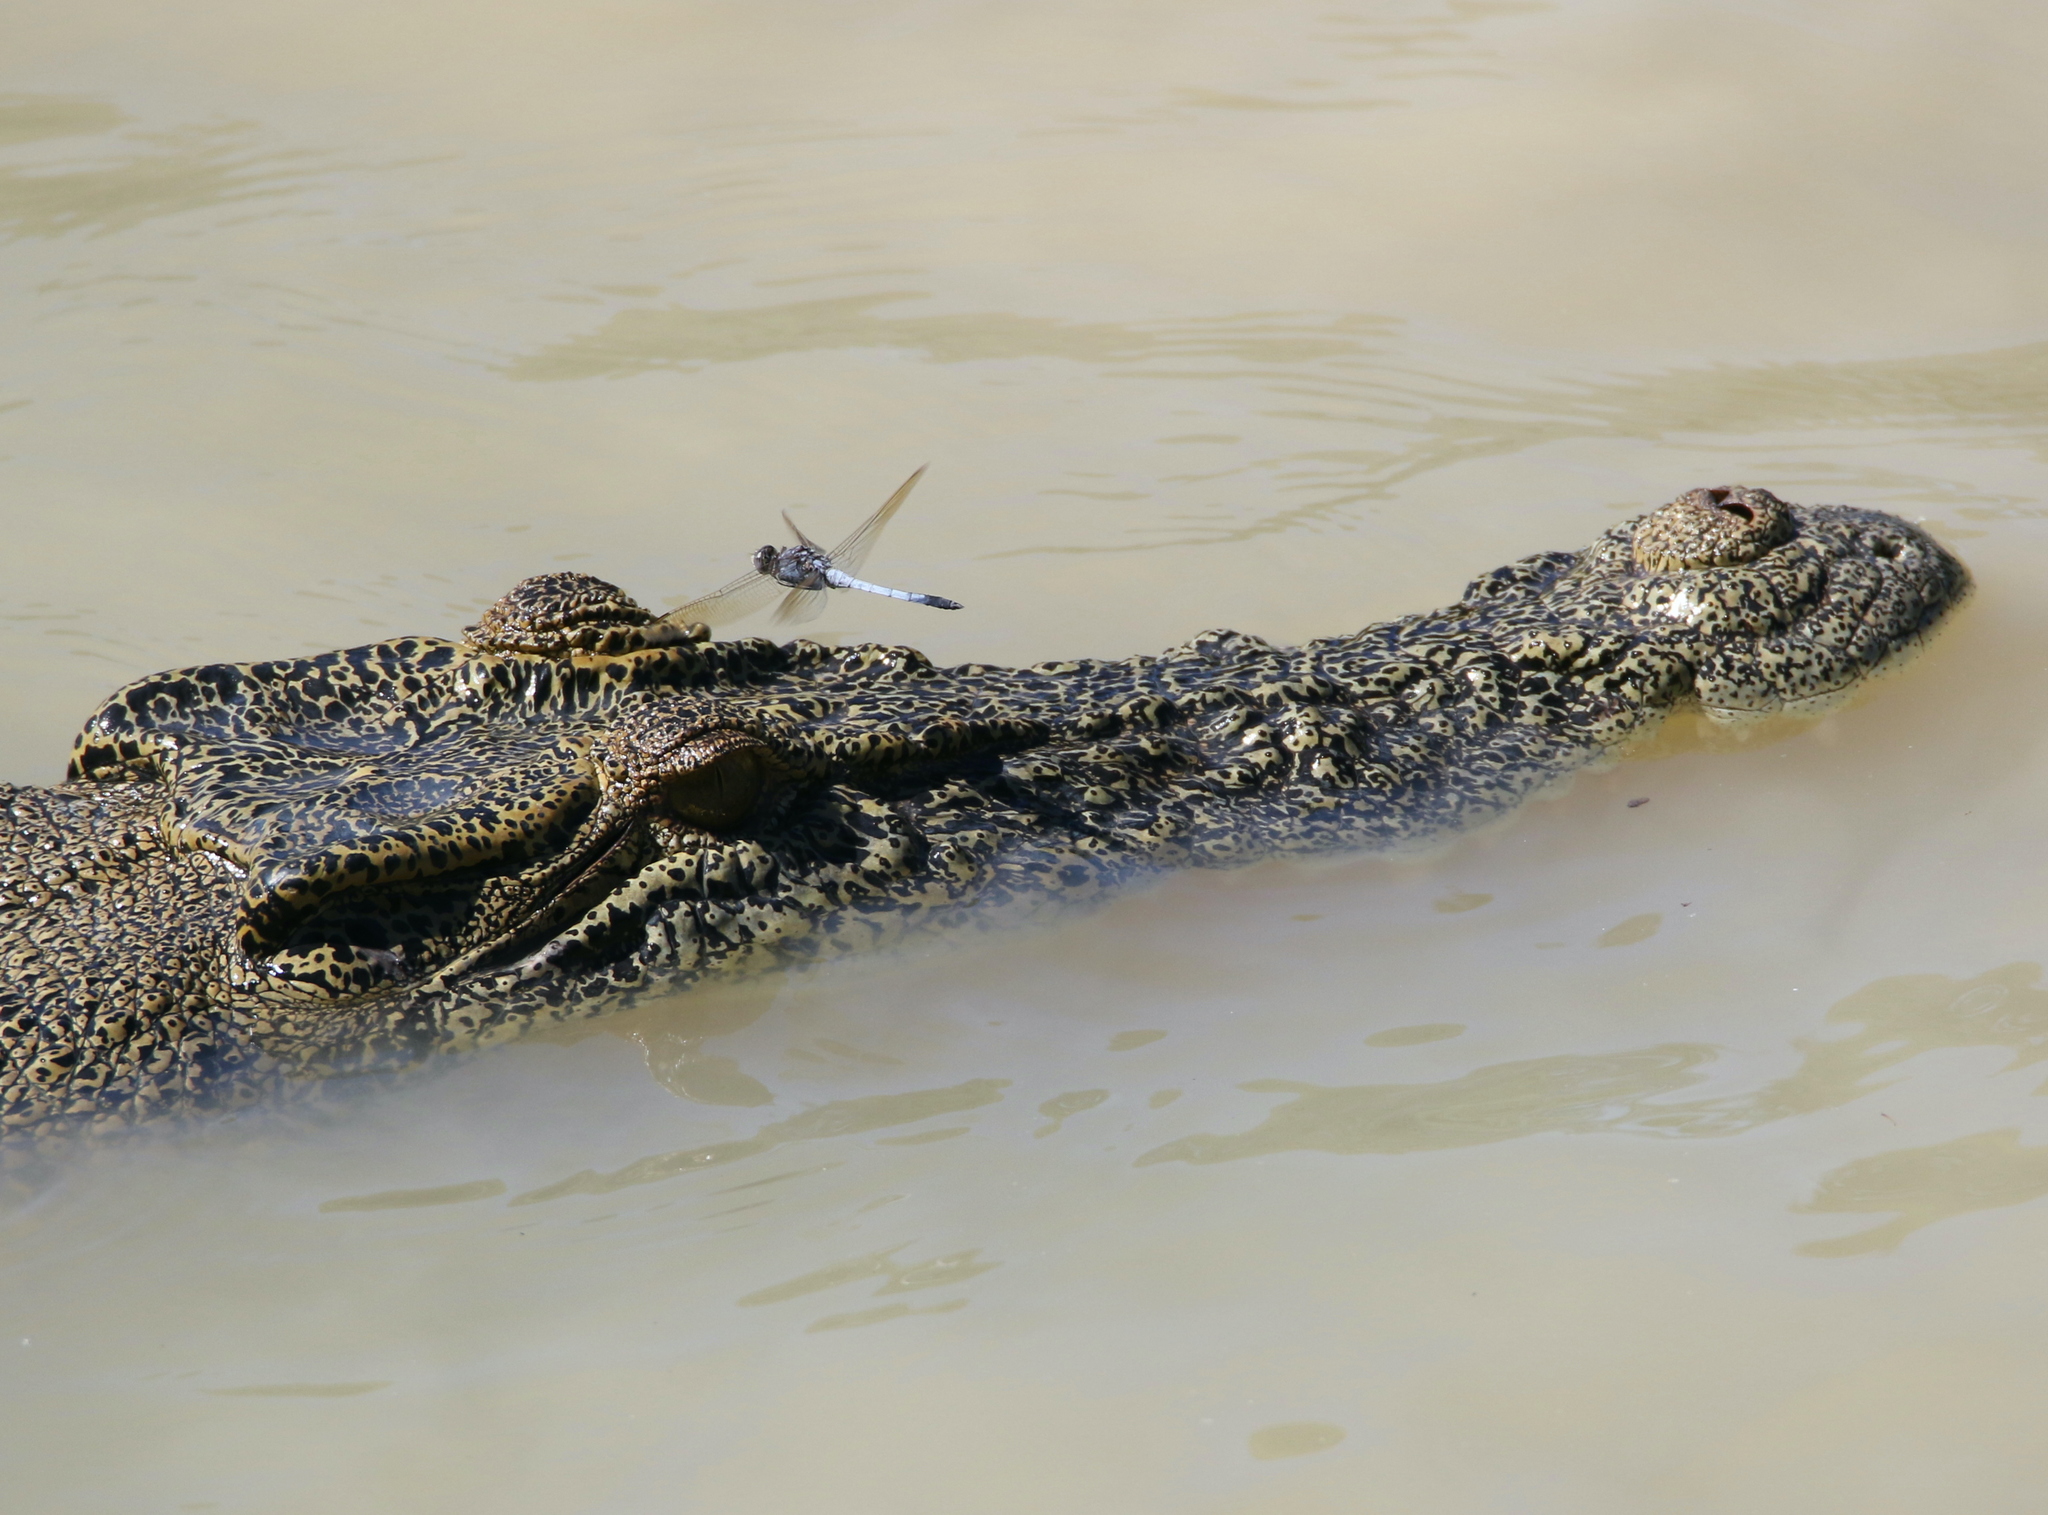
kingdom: Animalia
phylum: Arthropoda
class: Insecta
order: Odonata
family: Libellulidae
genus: Orthetrum
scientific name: Orthetrum caledonicum
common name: Blue skimmer
